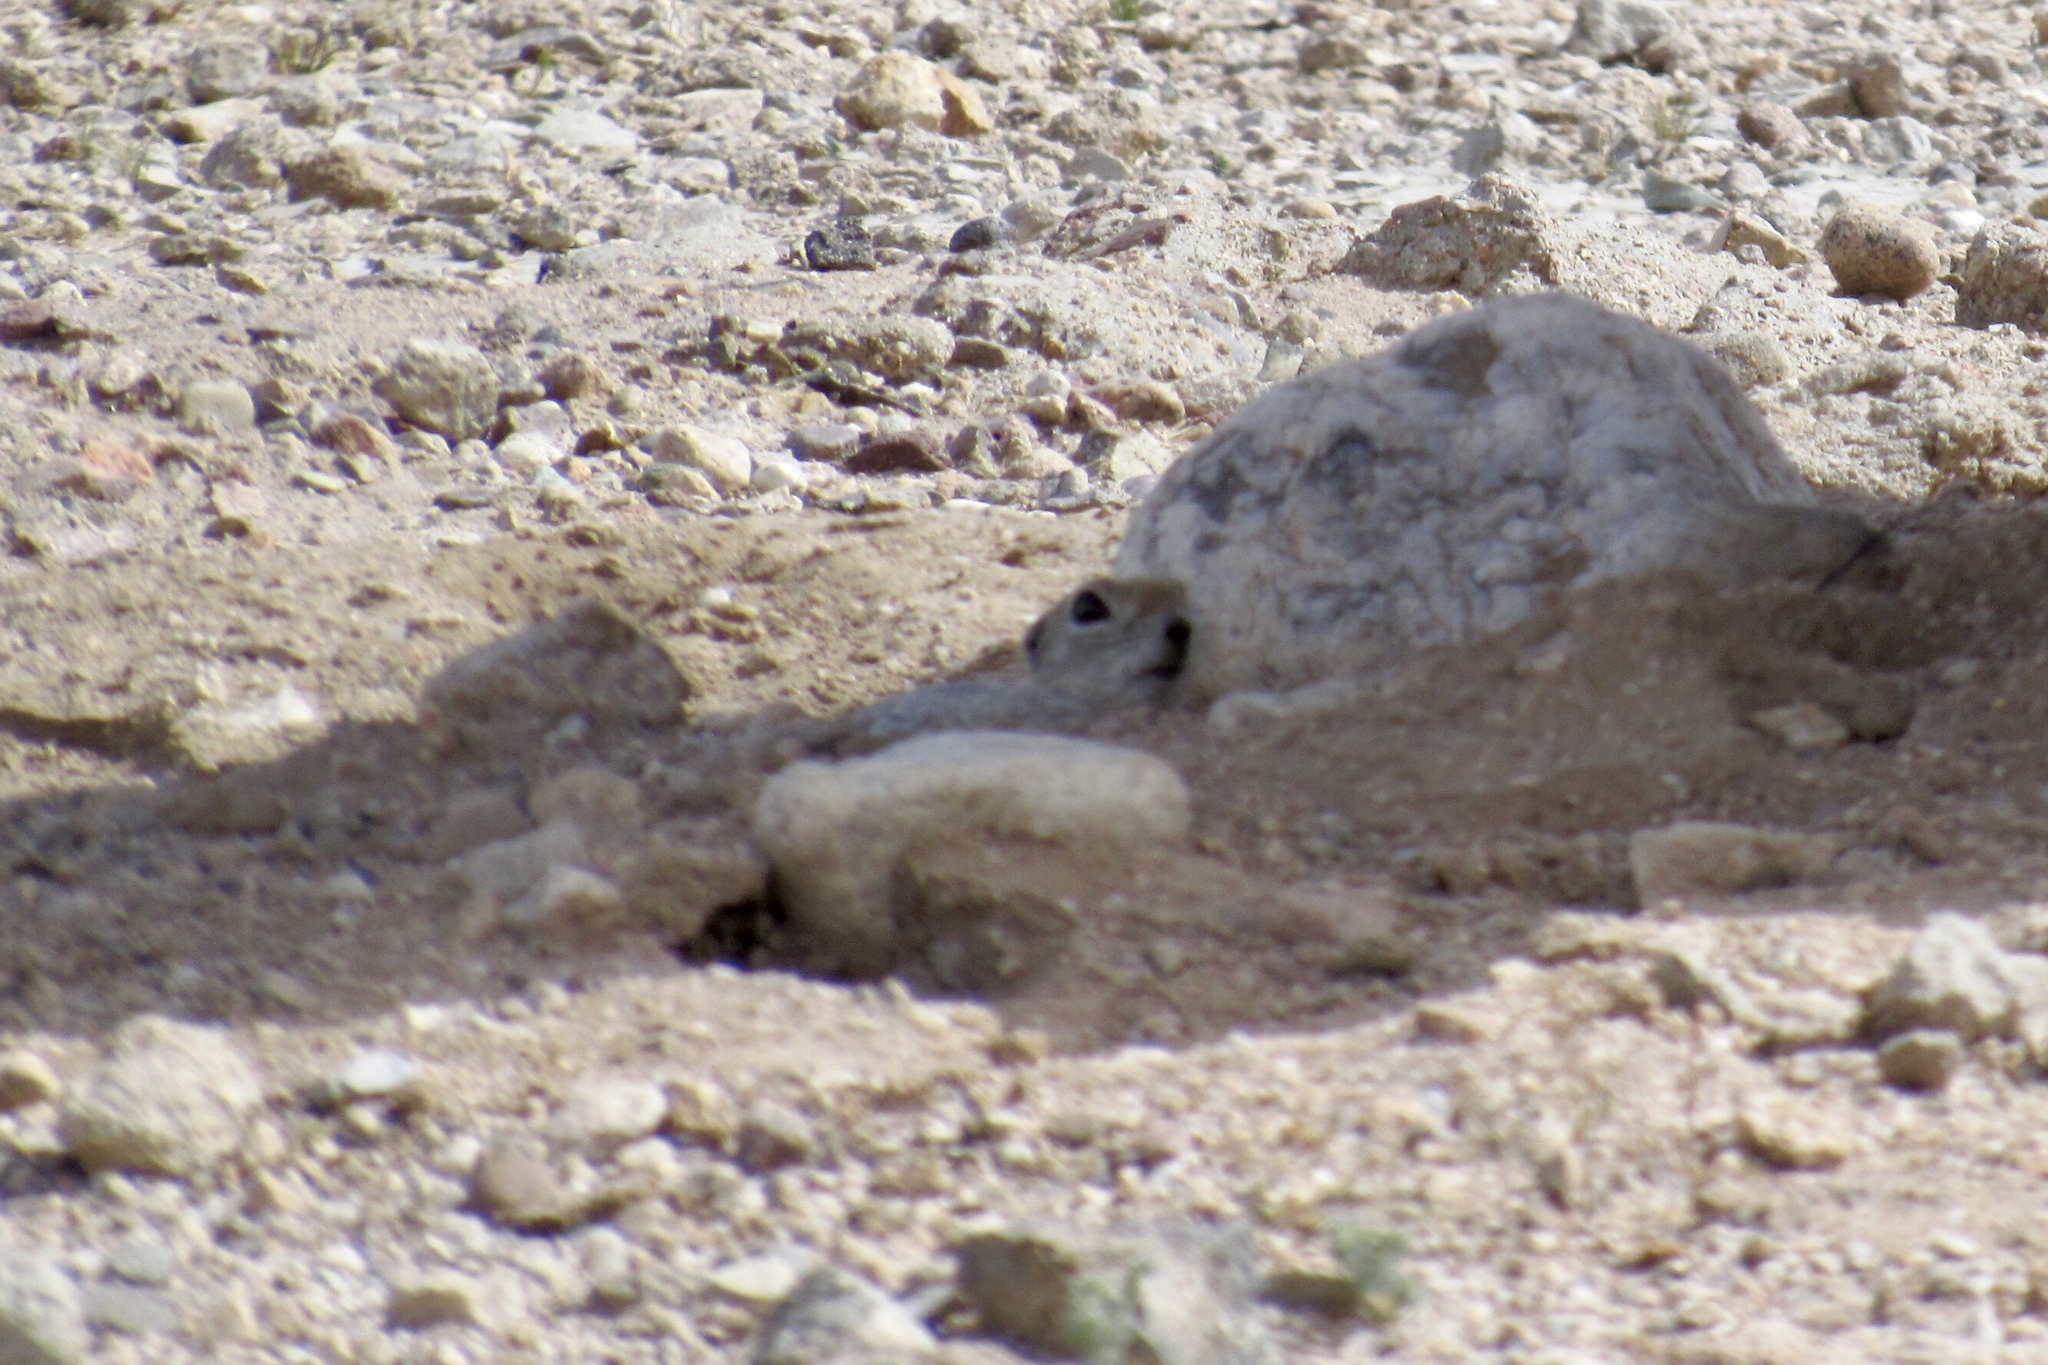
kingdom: Animalia
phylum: Chordata
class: Mammalia
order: Rodentia
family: Sciuridae
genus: Xerospermophilus
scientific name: Xerospermophilus tereticaudus
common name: Round-tailed ground squirrel
